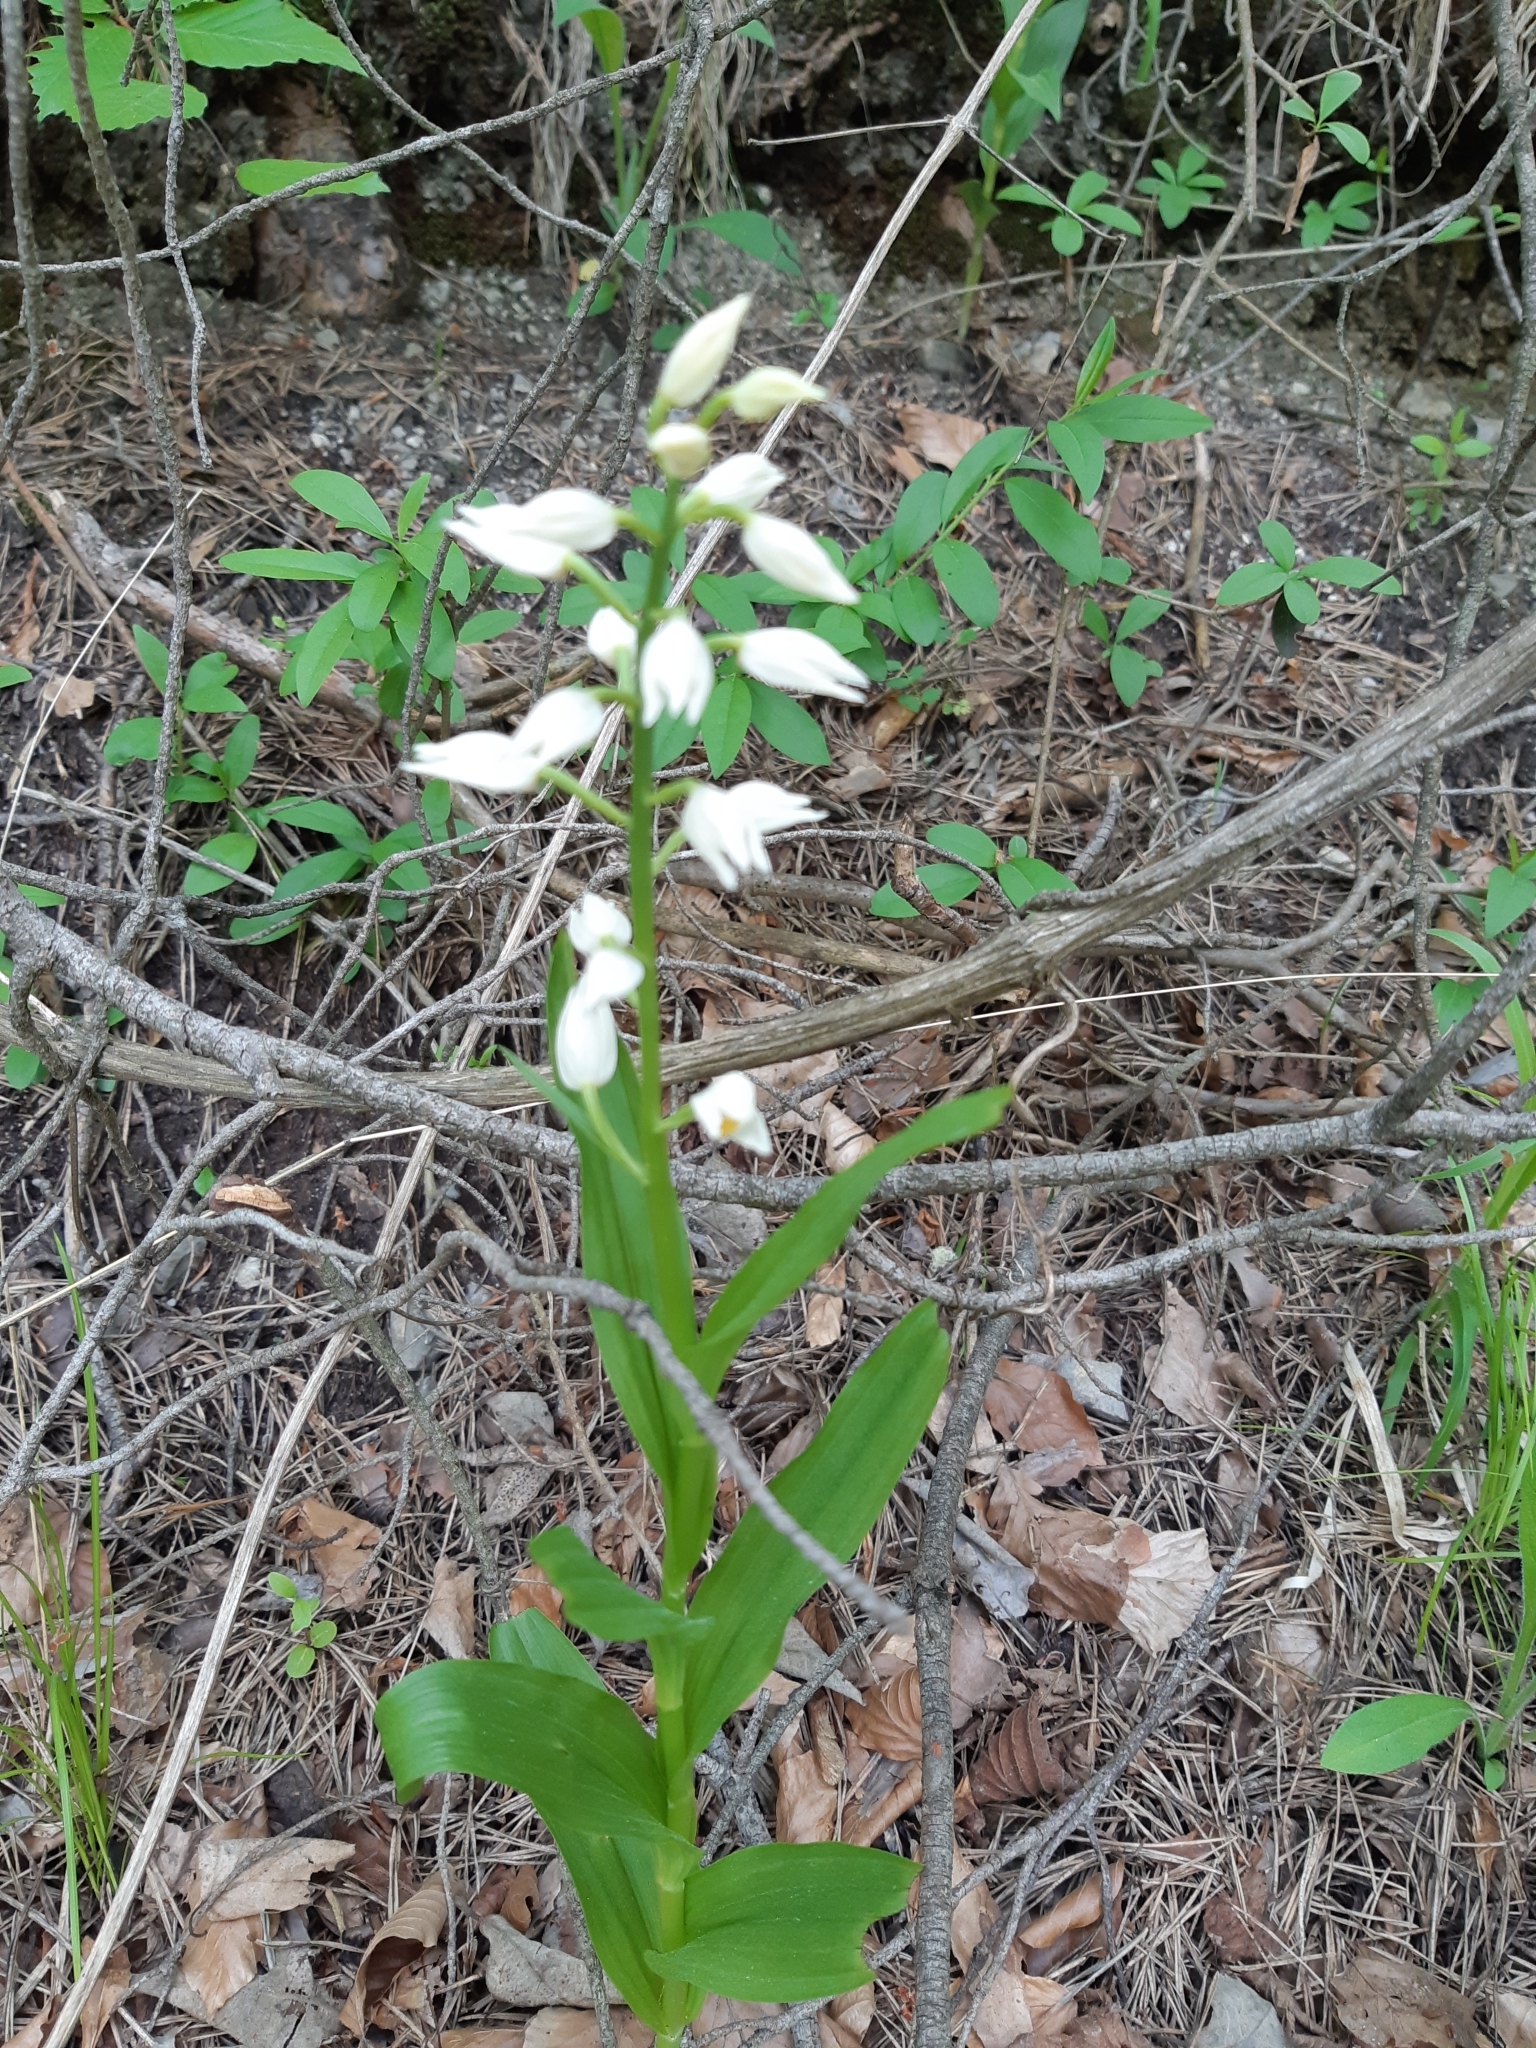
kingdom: Plantae
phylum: Tracheophyta
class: Liliopsida
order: Asparagales
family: Orchidaceae
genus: Cephalanthera
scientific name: Cephalanthera longifolia
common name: Narrow-leaved helleborine
